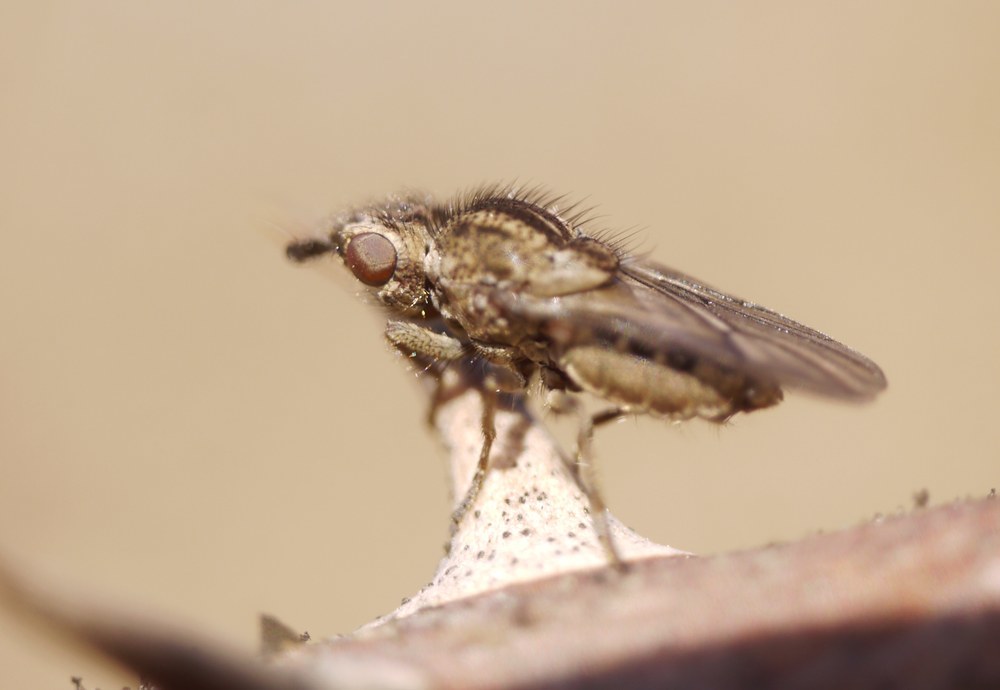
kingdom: Animalia
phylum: Arthropoda
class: Insecta
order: Diptera
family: Chloropidae
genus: Trichieurina
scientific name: Trichieurina pubescens
